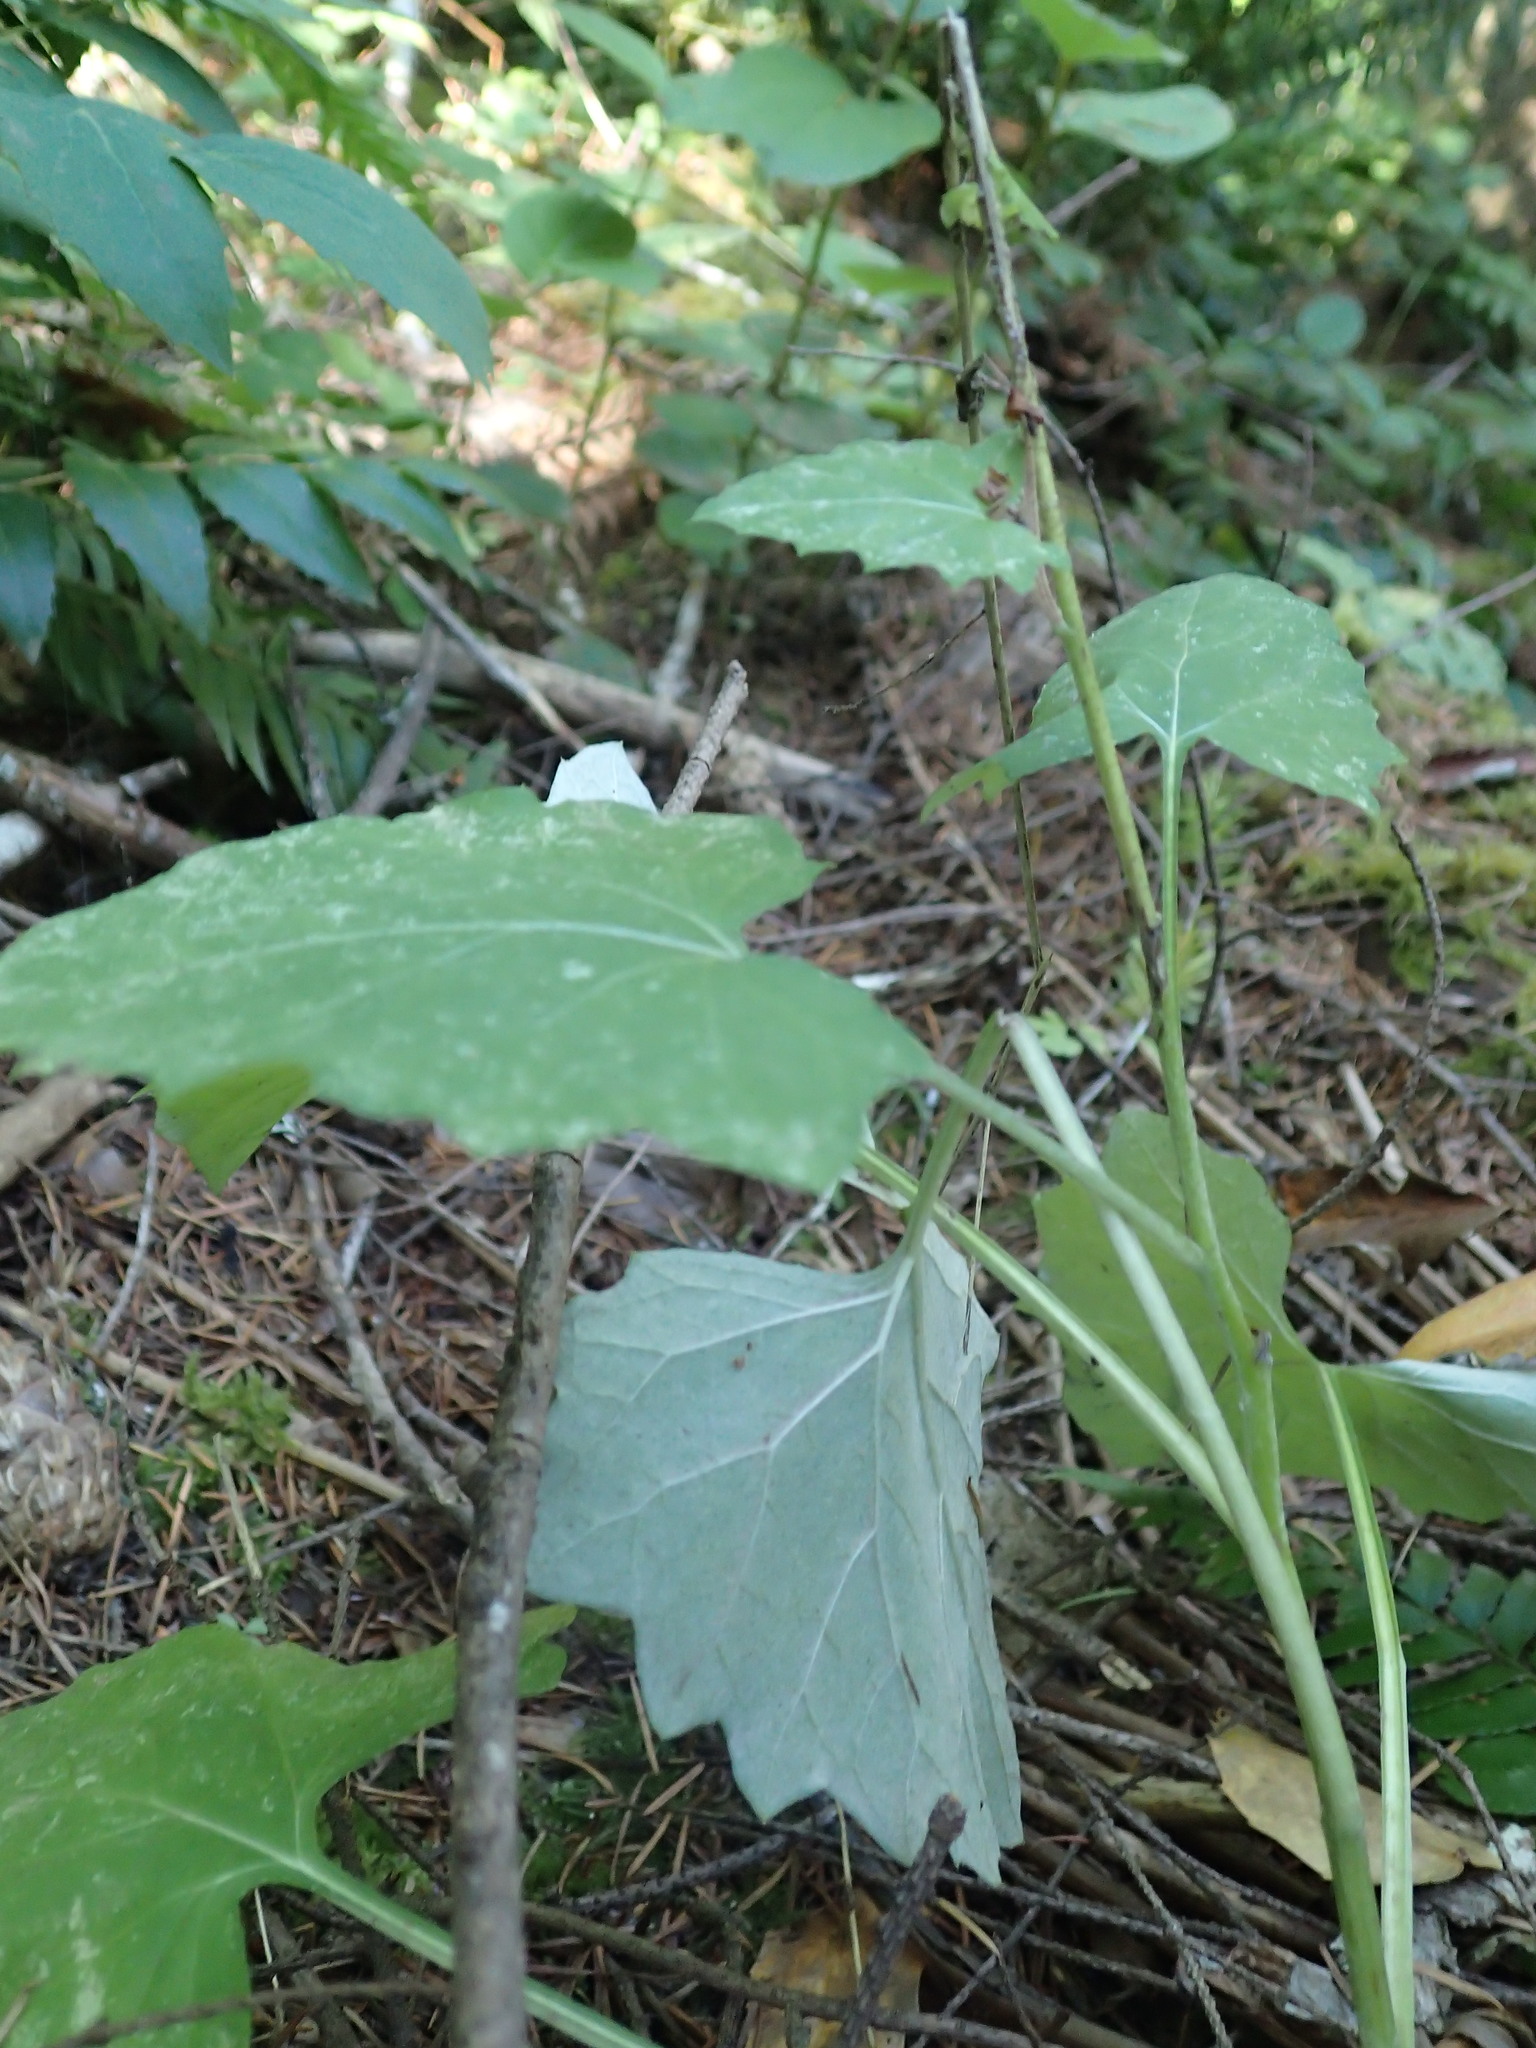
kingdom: Plantae
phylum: Tracheophyta
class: Magnoliopsida
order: Asterales
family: Asteraceae
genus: Adenocaulon
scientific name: Adenocaulon bicolor
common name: Trailplant
